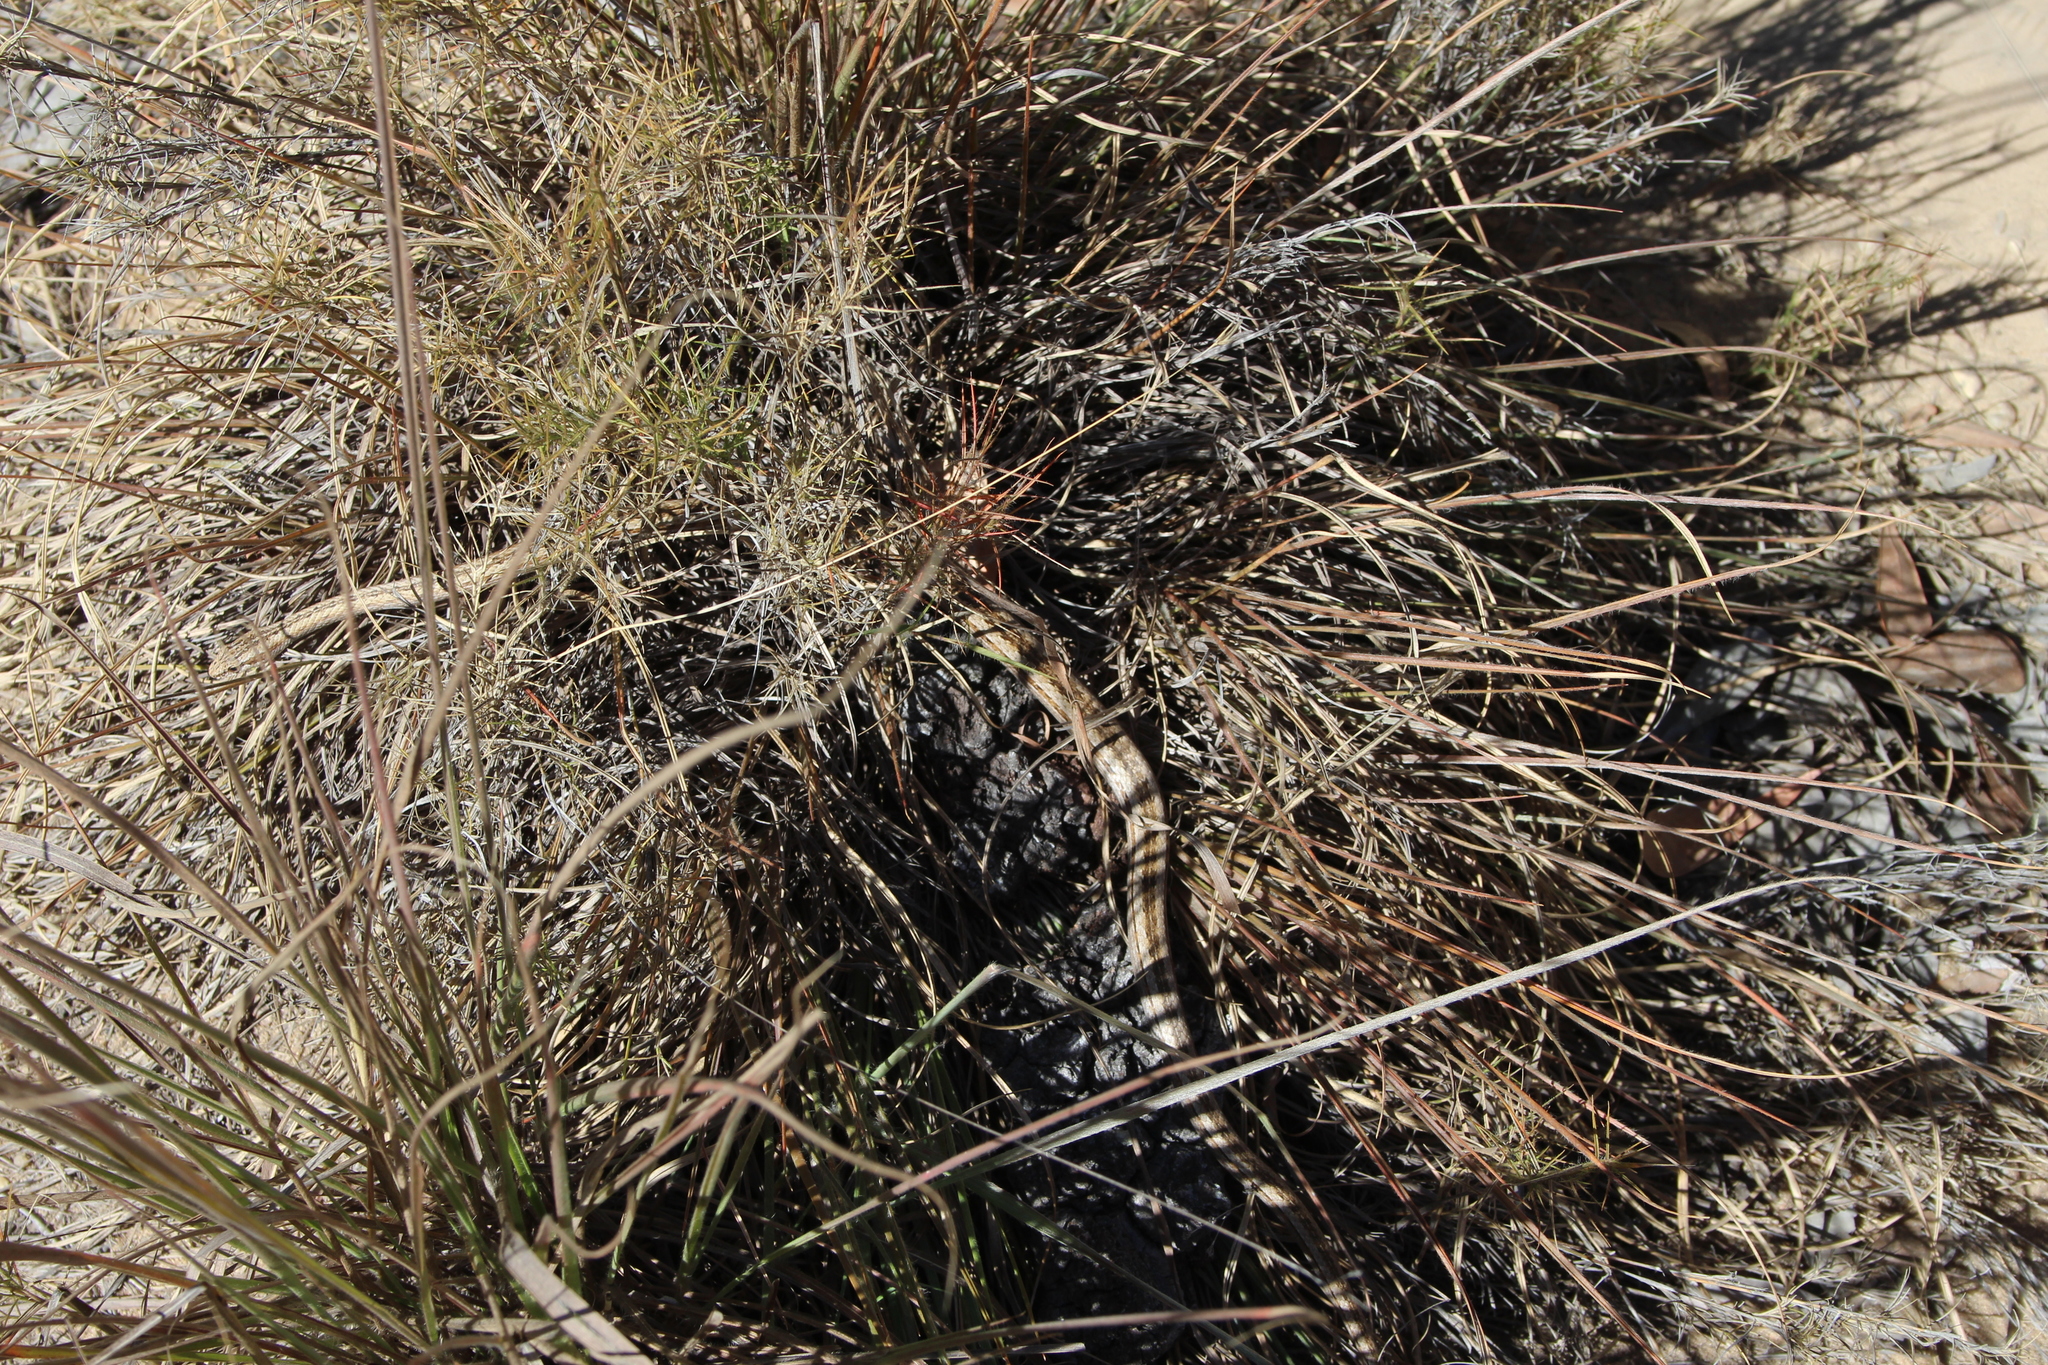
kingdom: Animalia
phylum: Chordata
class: Squamata
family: Psammophiidae
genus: Mimophis
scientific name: Mimophis mahfalensis
